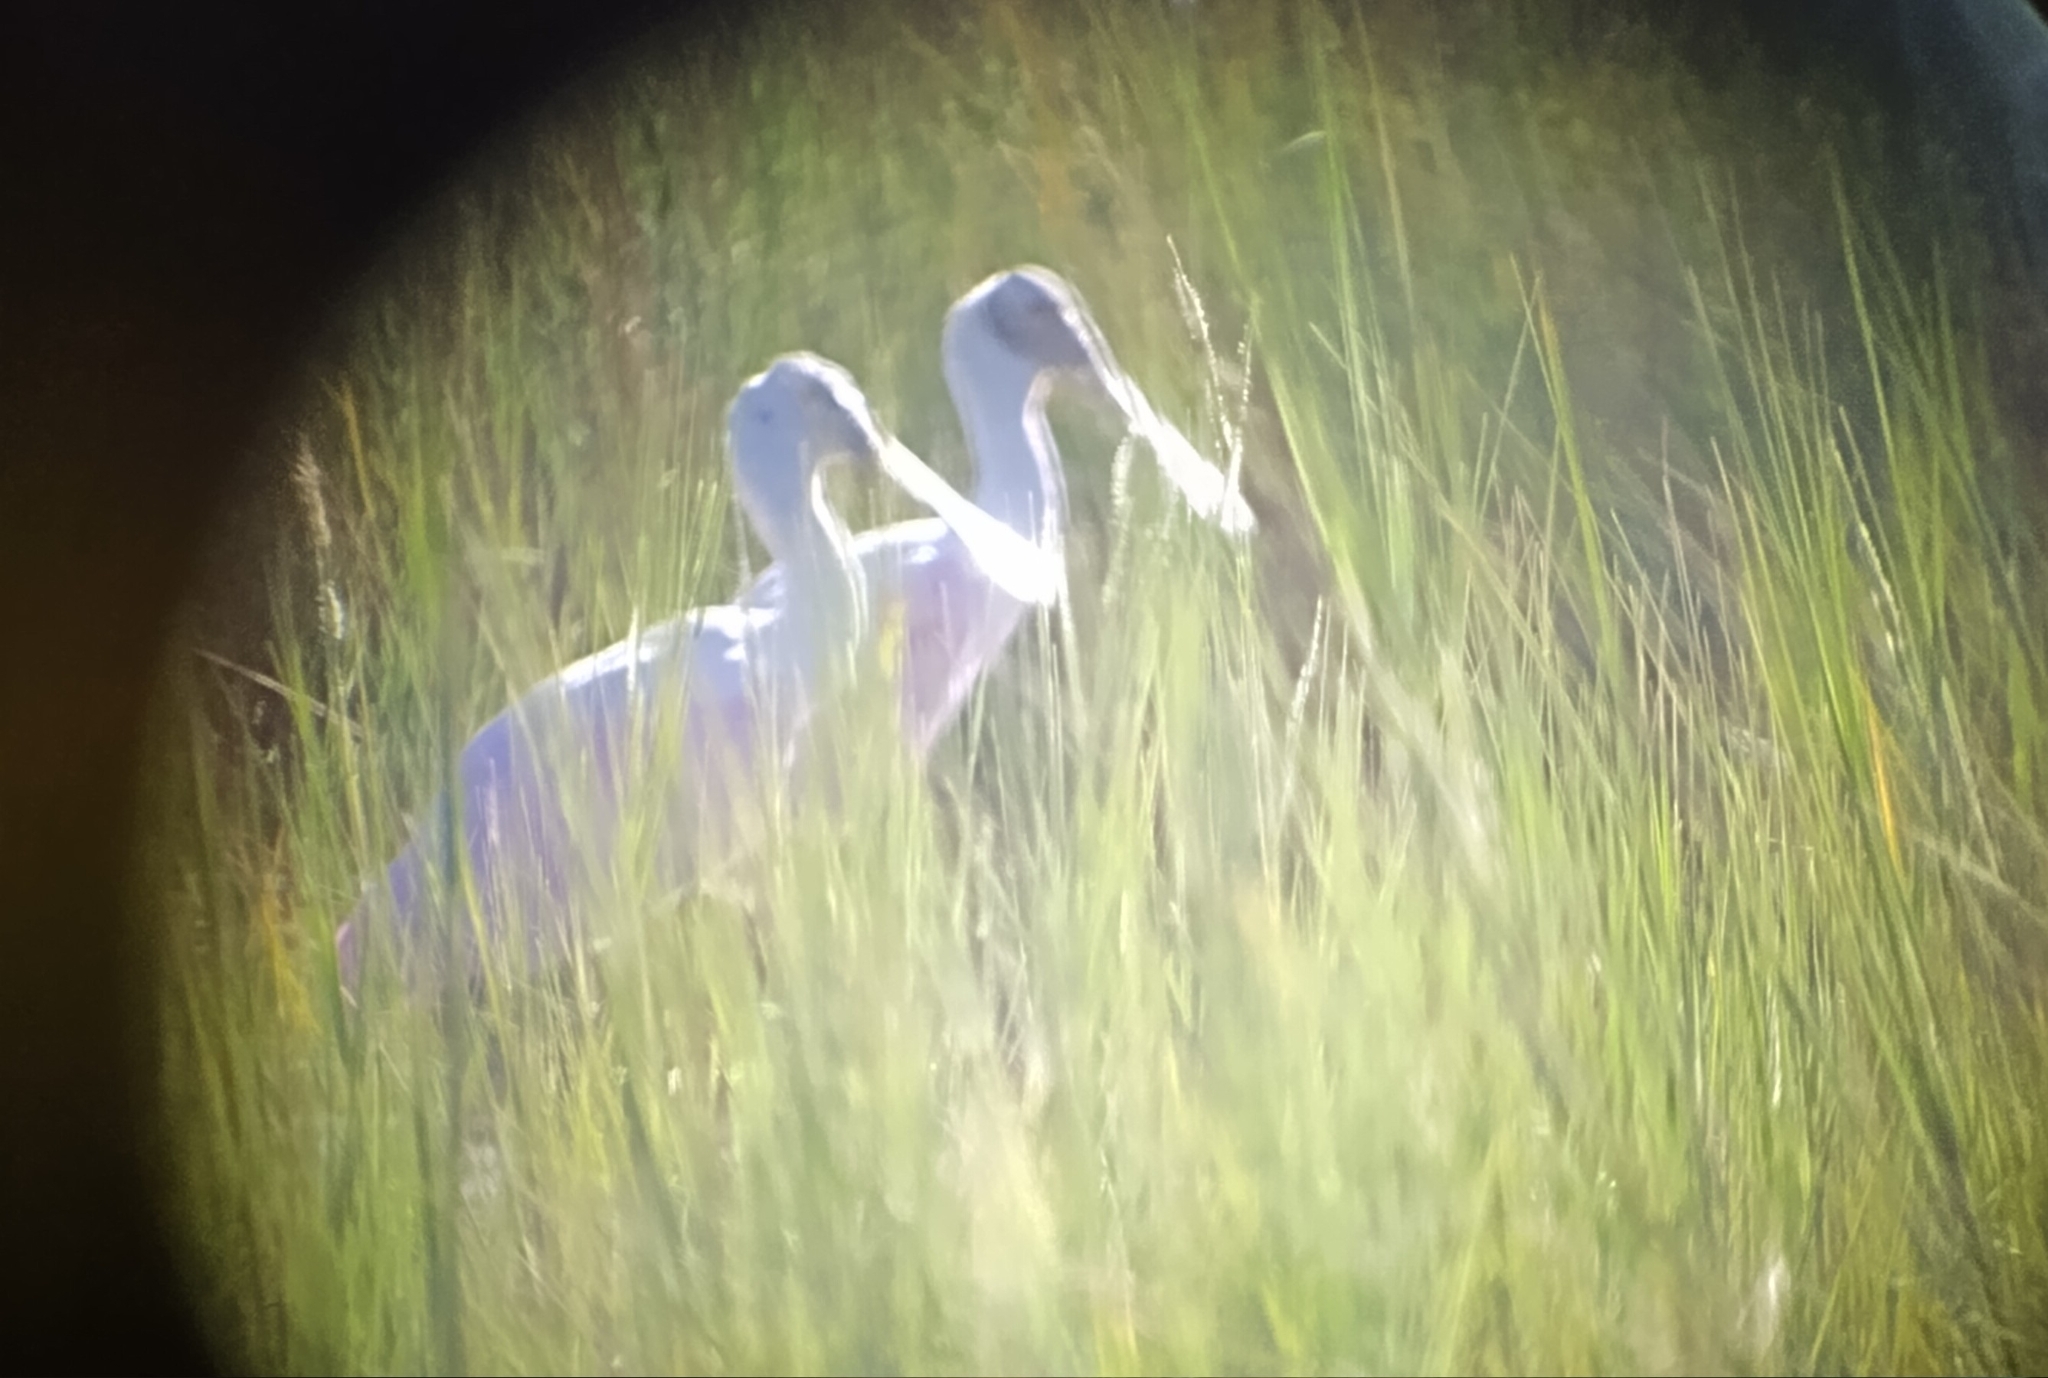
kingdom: Animalia
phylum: Chordata
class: Aves
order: Pelecaniformes
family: Threskiornithidae
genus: Platalea
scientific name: Platalea ajaja
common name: Roseate spoonbill
